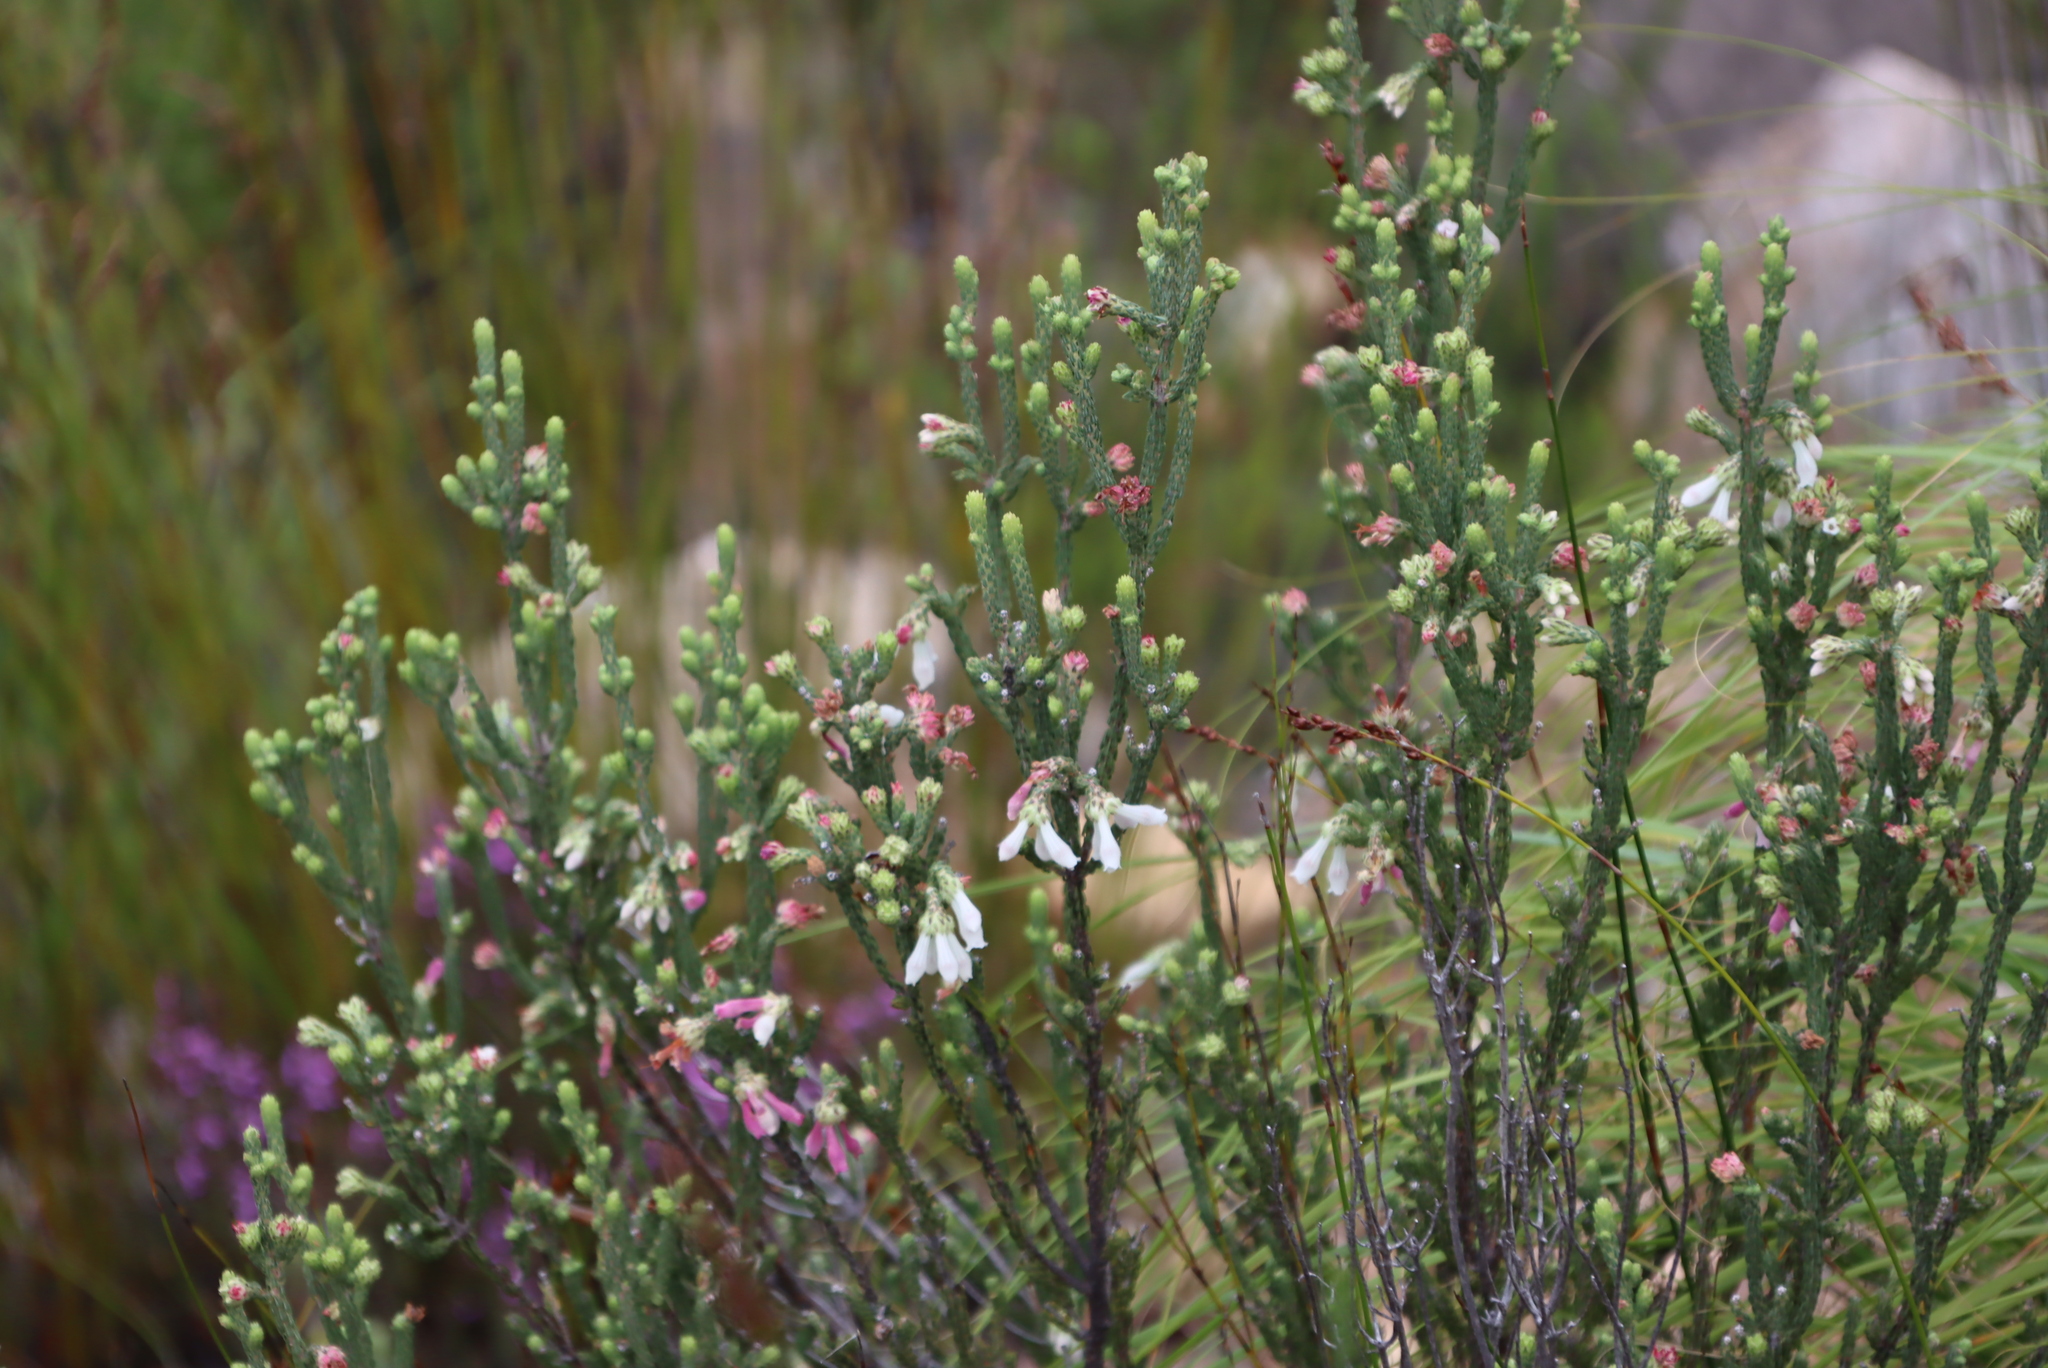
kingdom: Plantae
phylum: Tracheophyta
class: Magnoliopsida
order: Ericales
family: Ericaceae
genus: Erica
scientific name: Erica pectinifolia
